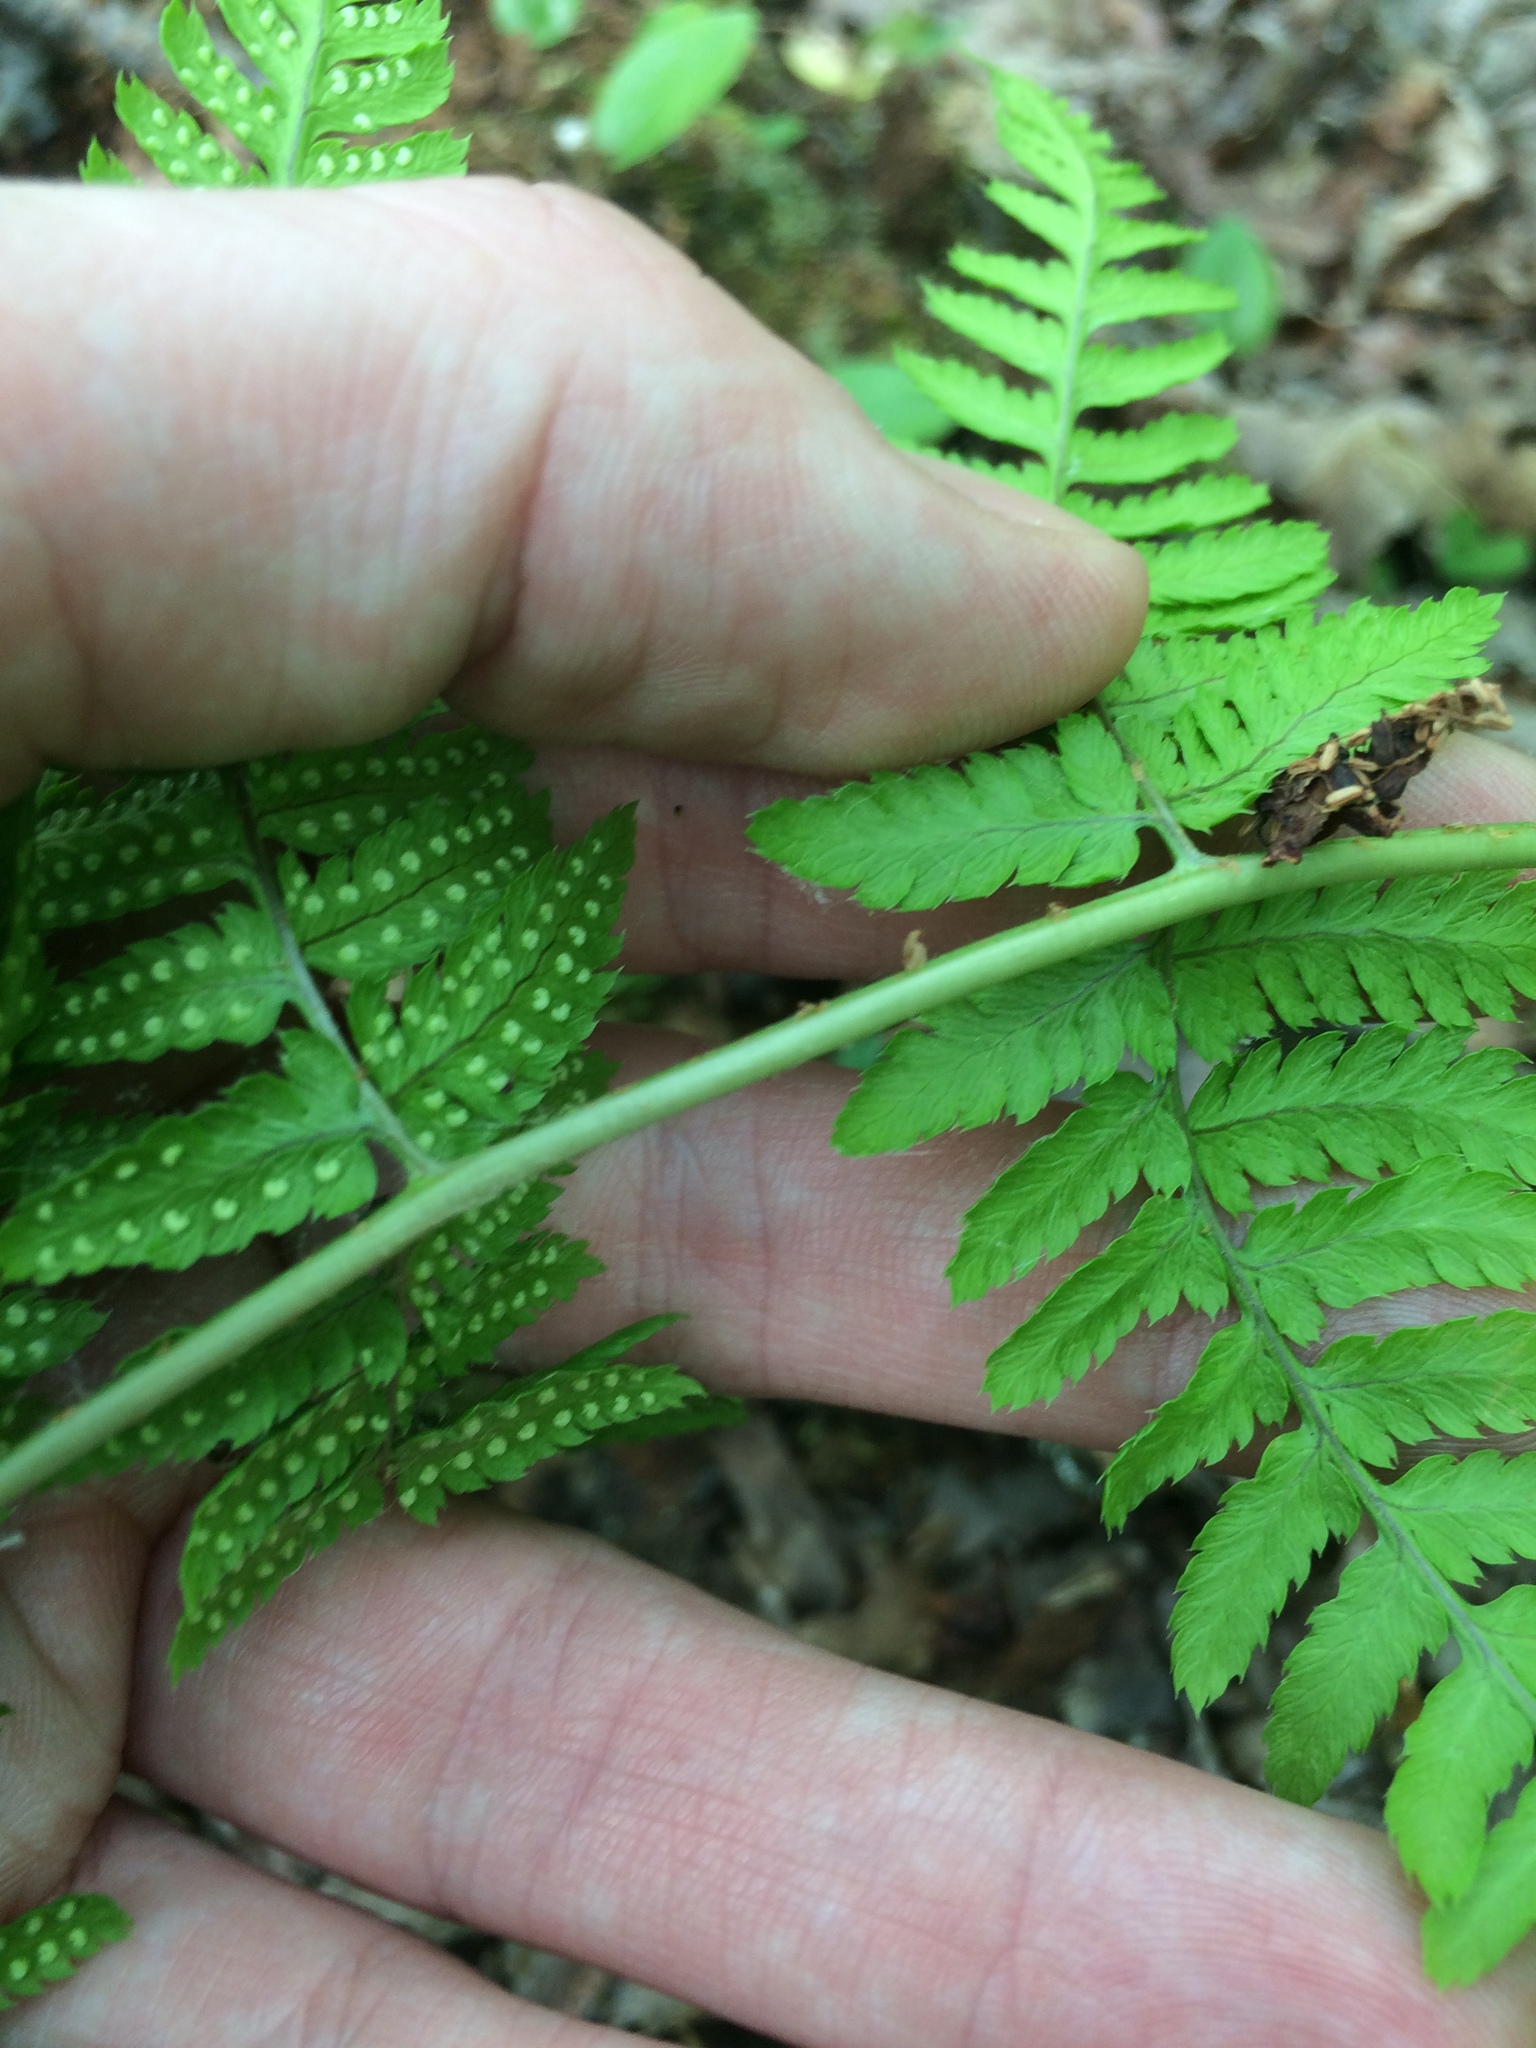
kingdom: Plantae
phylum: Tracheophyta
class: Polypodiopsida
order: Polypodiales
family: Dryopteridaceae
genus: Dryopteris
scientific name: Dryopteris carthusiana
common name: Narrow buckler-fern
